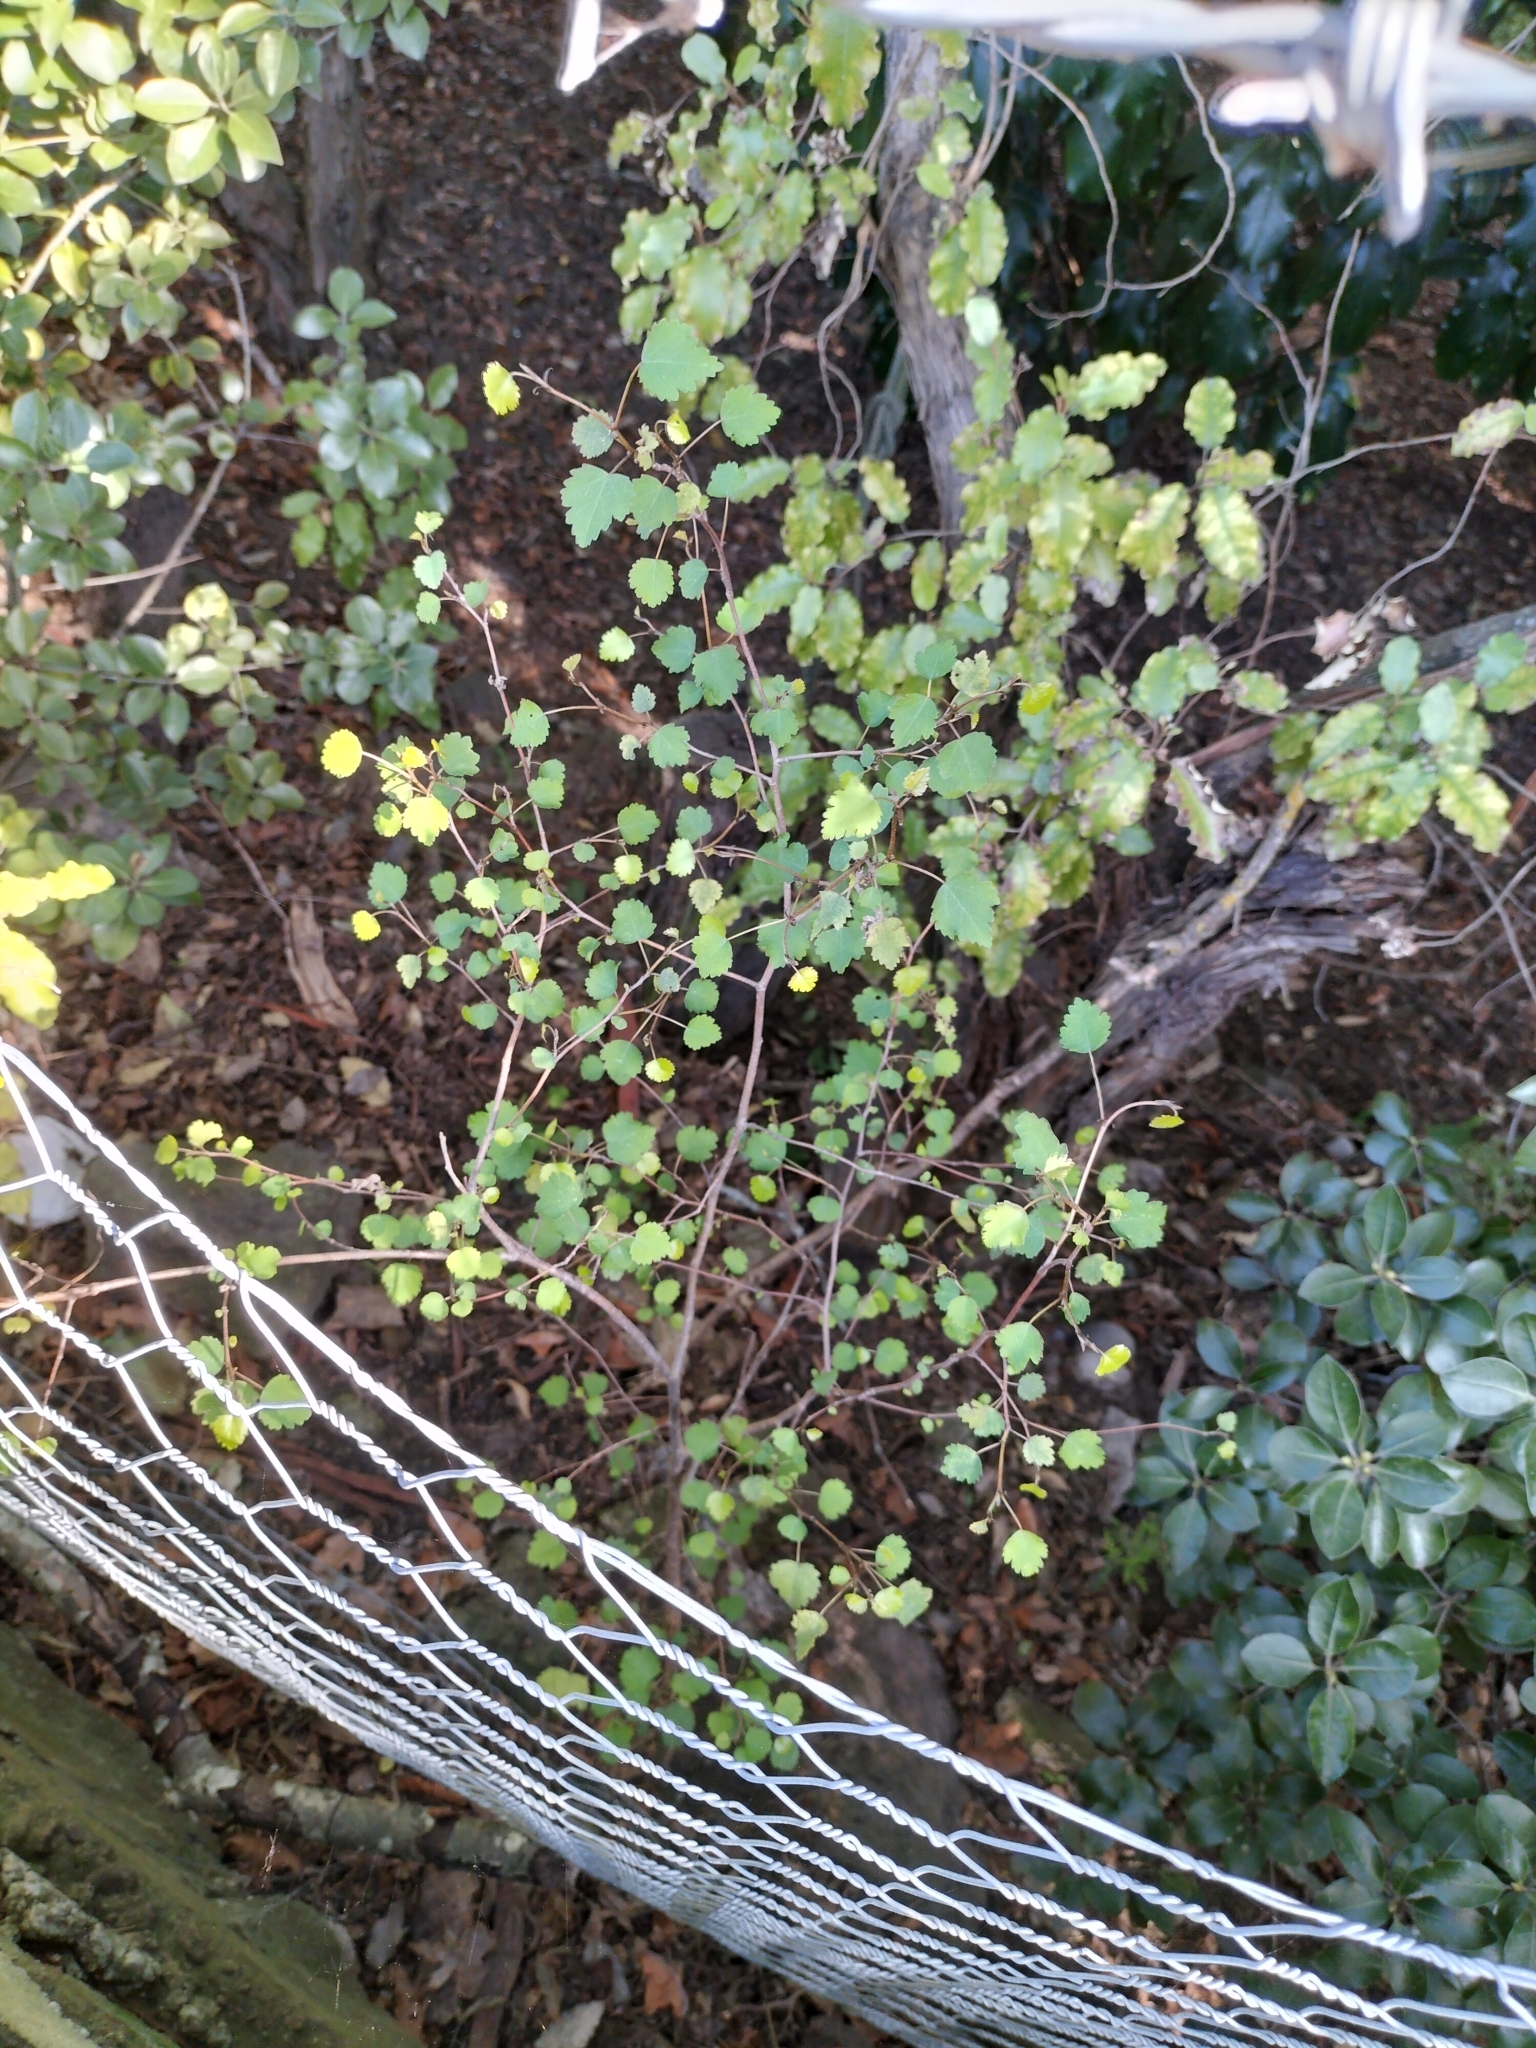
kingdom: Plantae
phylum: Tracheophyta
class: Magnoliopsida
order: Malvales
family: Malvaceae
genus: Plagianthus
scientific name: Plagianthus regius
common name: Manatu
